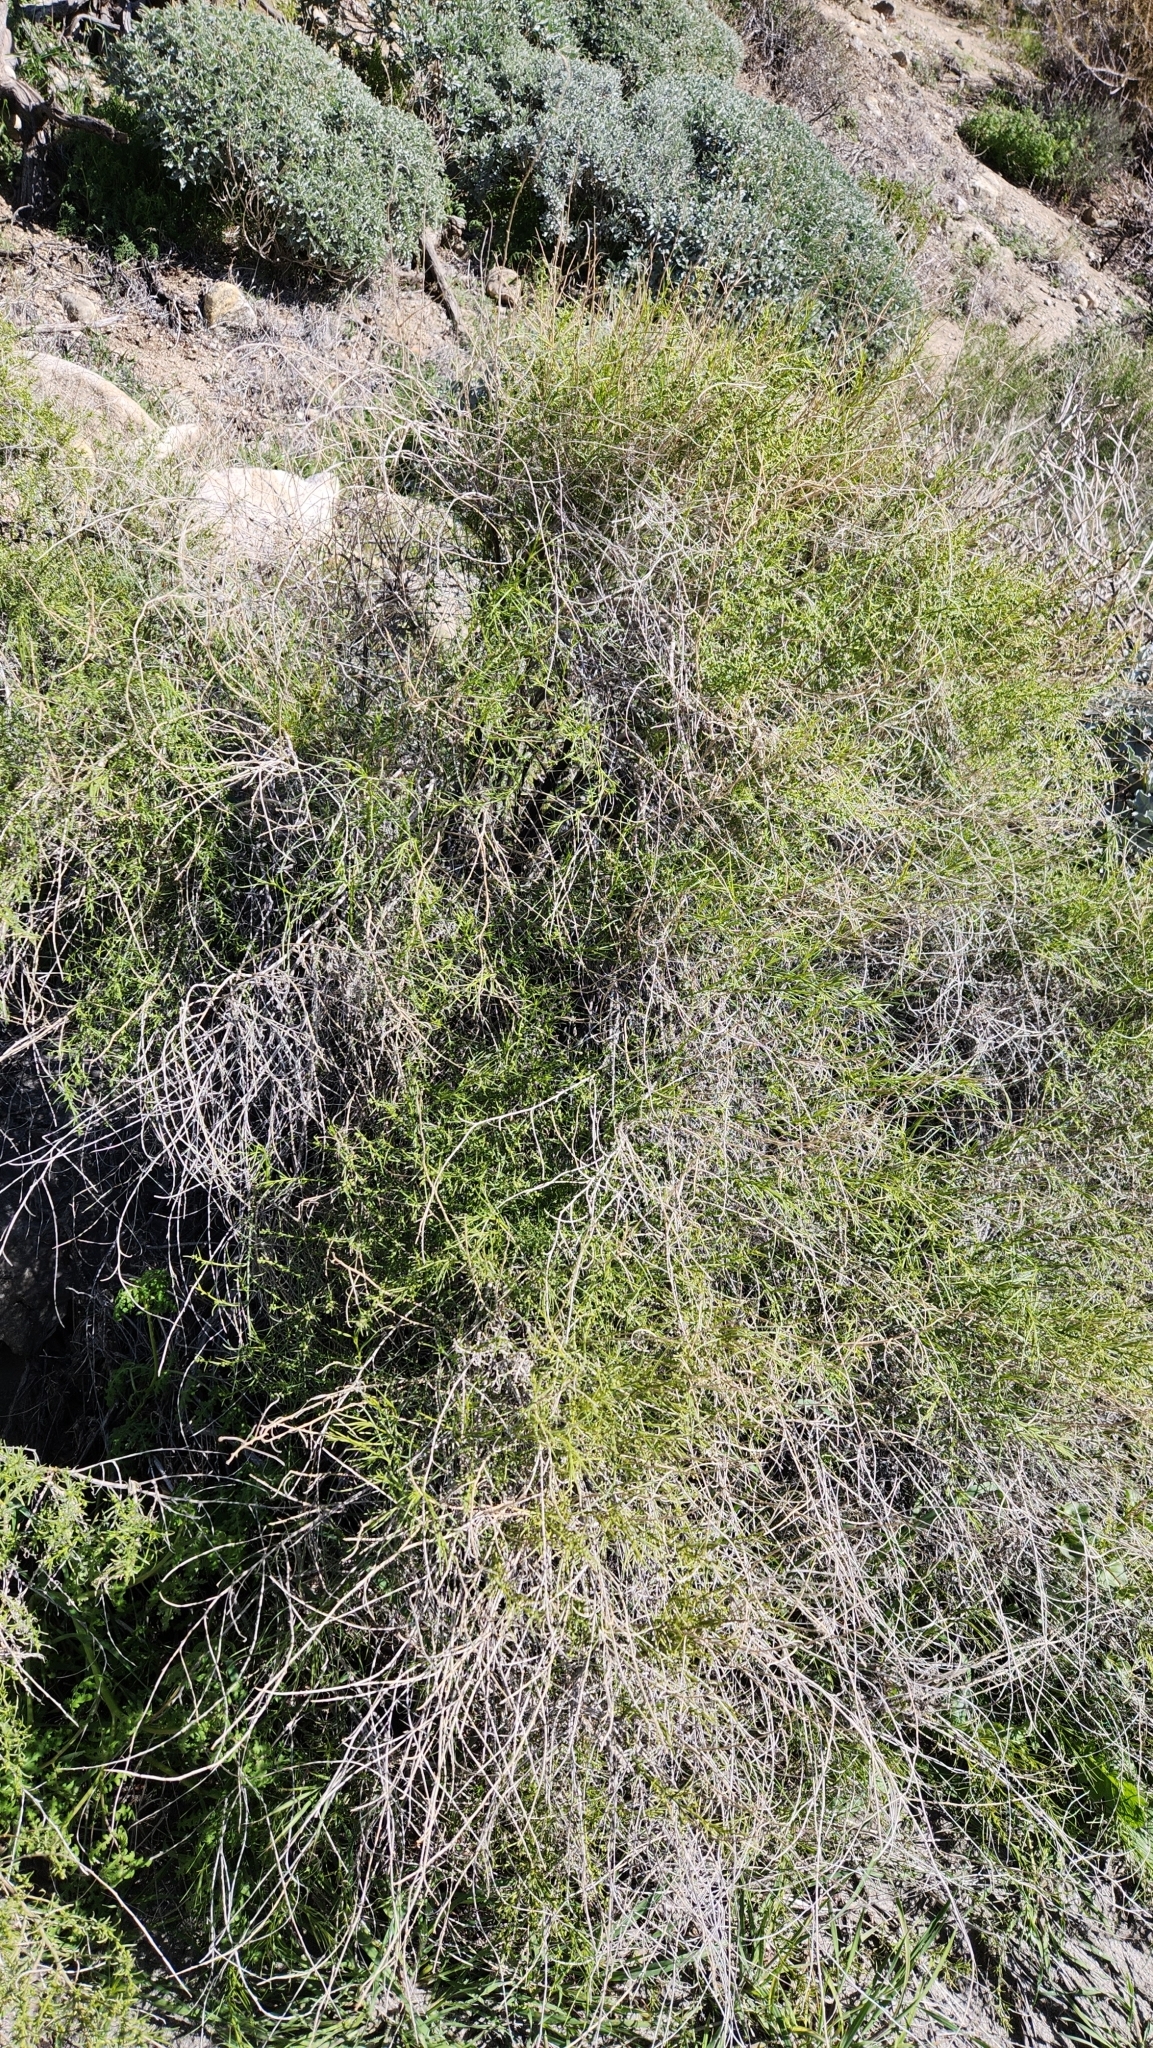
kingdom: Plantae
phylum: Tracheophyta
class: Magnoliopsida
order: Asterales
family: Asteraceae
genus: Ambrosia
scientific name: Ambrosia salsola
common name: Burrobrush
